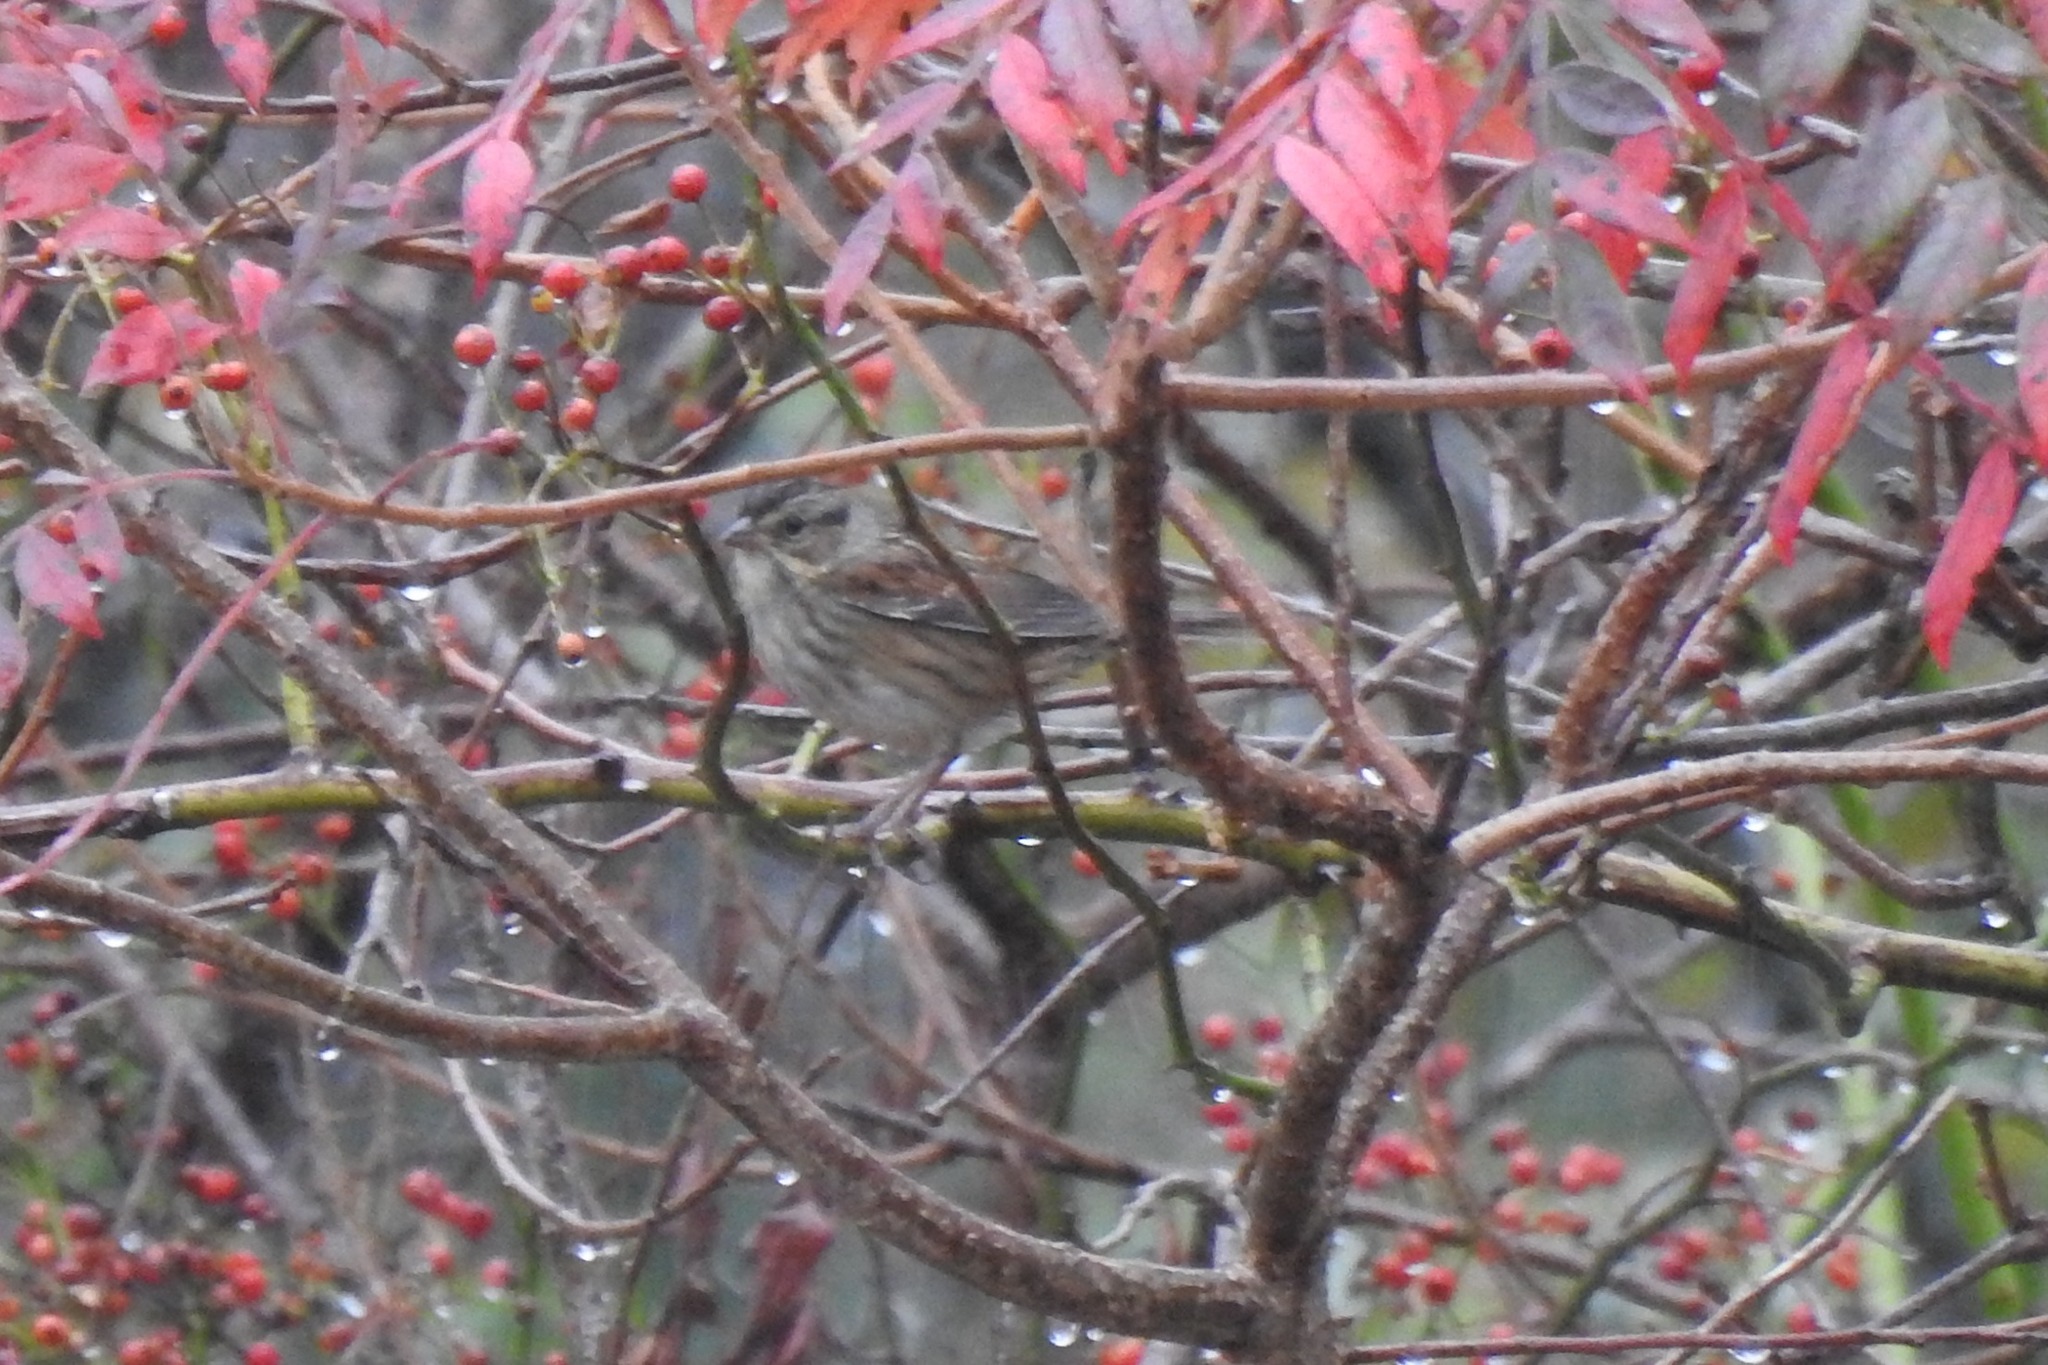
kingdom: Animalia
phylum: Chordata
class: Aves
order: Passeriformes
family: Passerellidae
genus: Melospiza
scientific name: Melospiza georgiana
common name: Swamp sparrow
